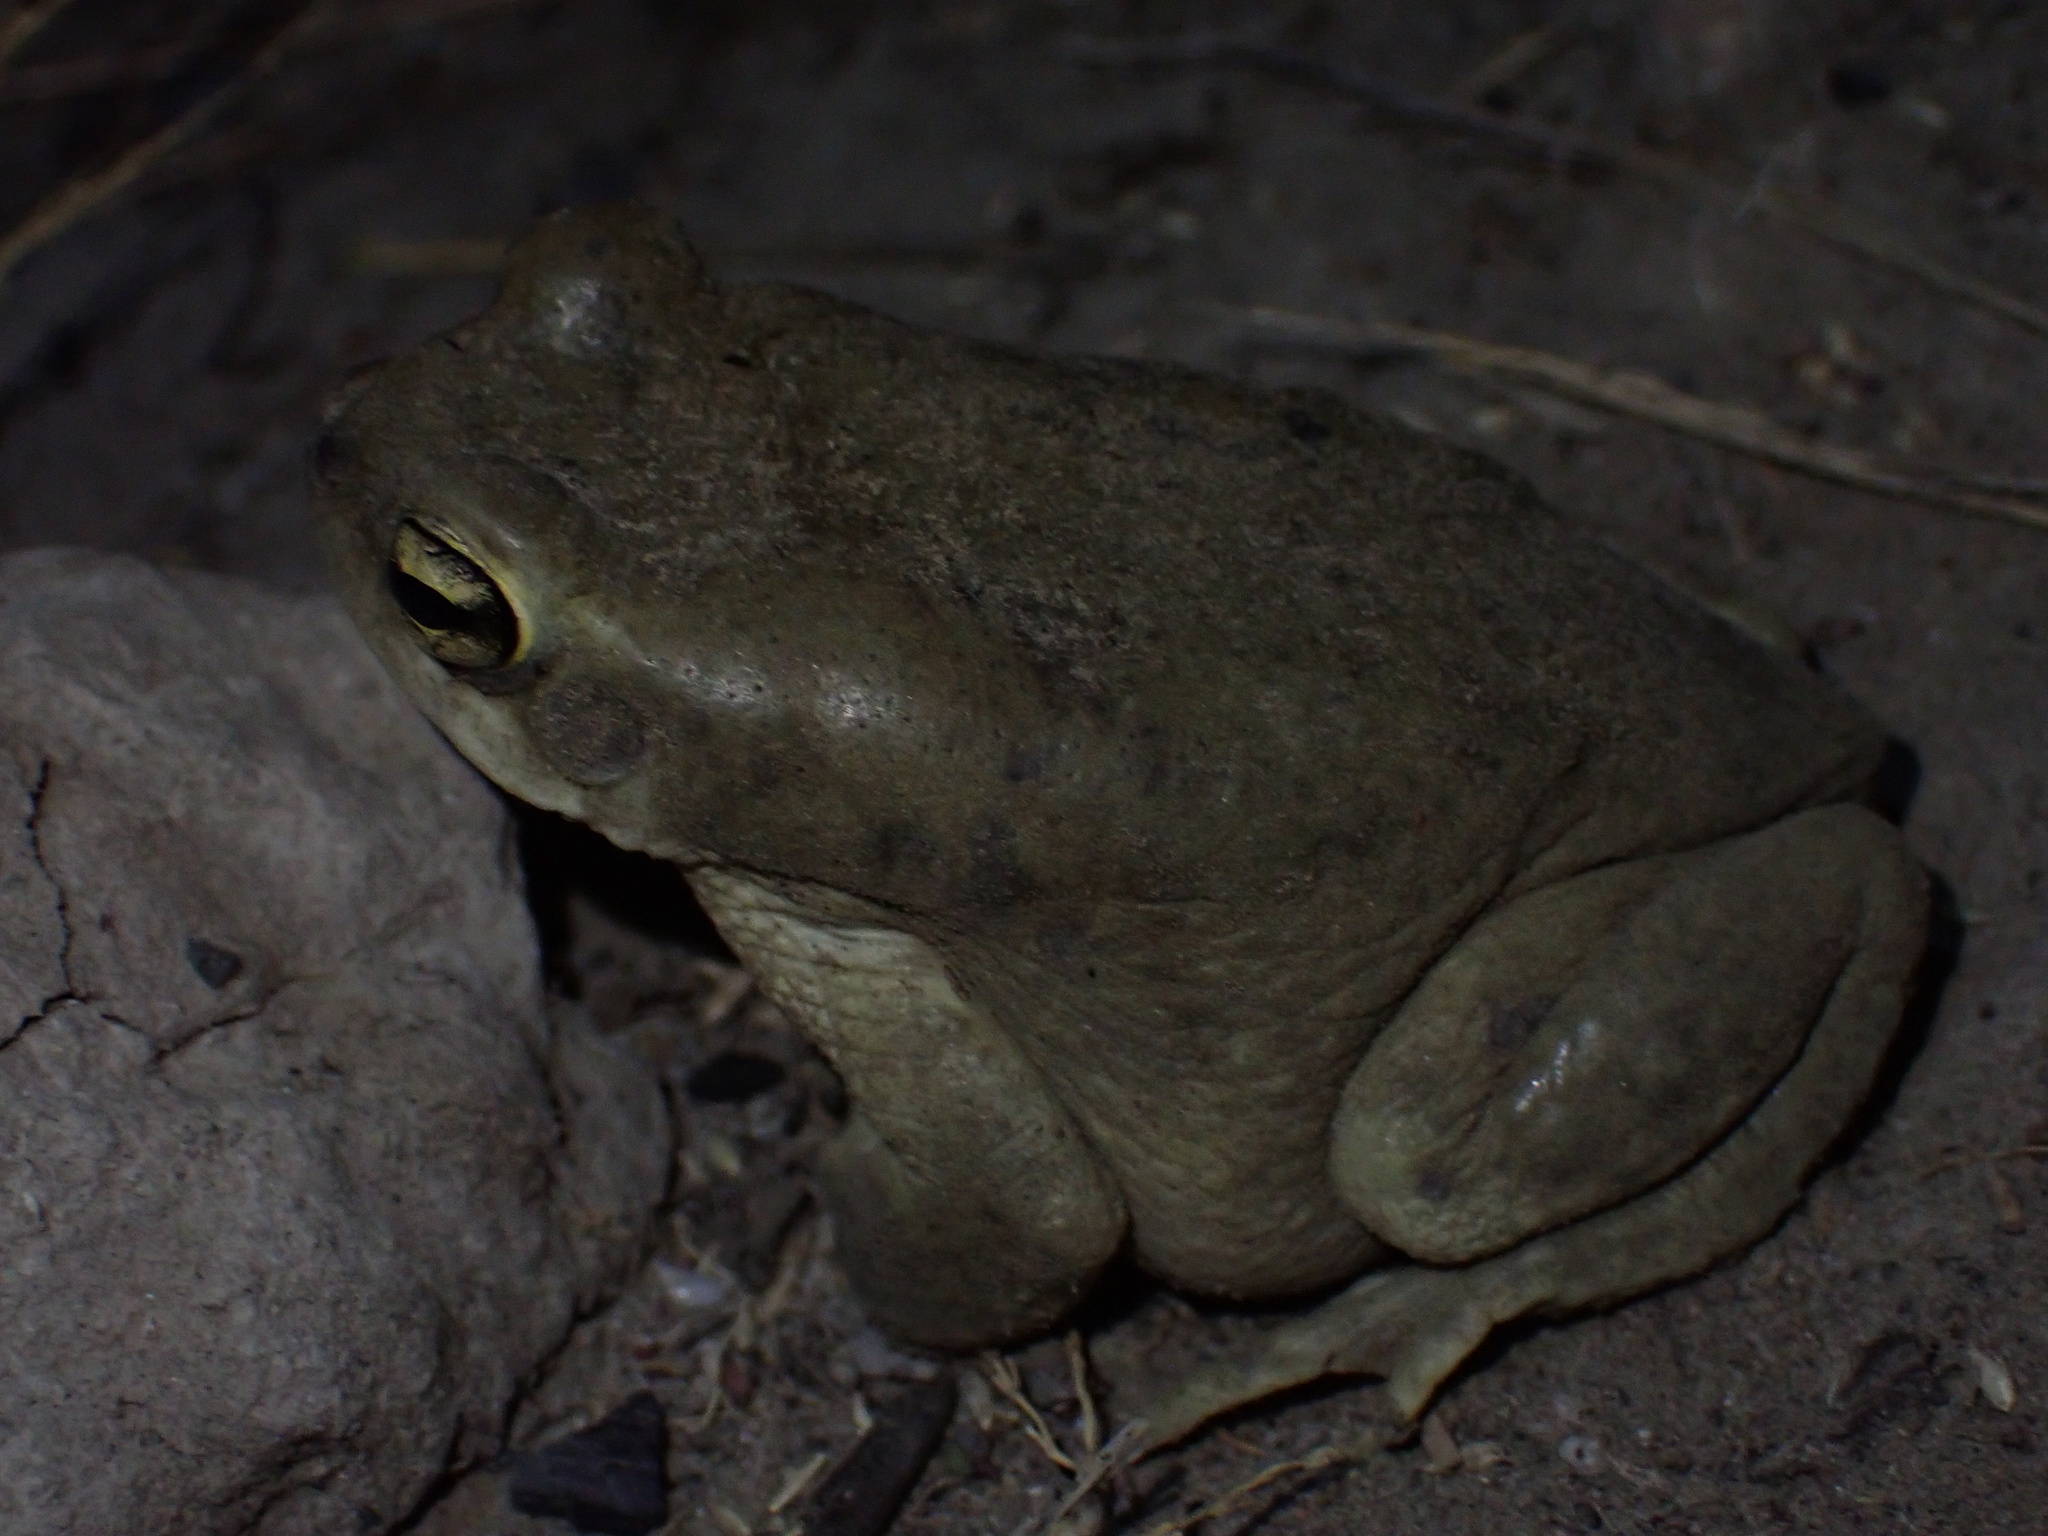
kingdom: Animalia
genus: Firouzophrynus
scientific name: Firouzophrynus
